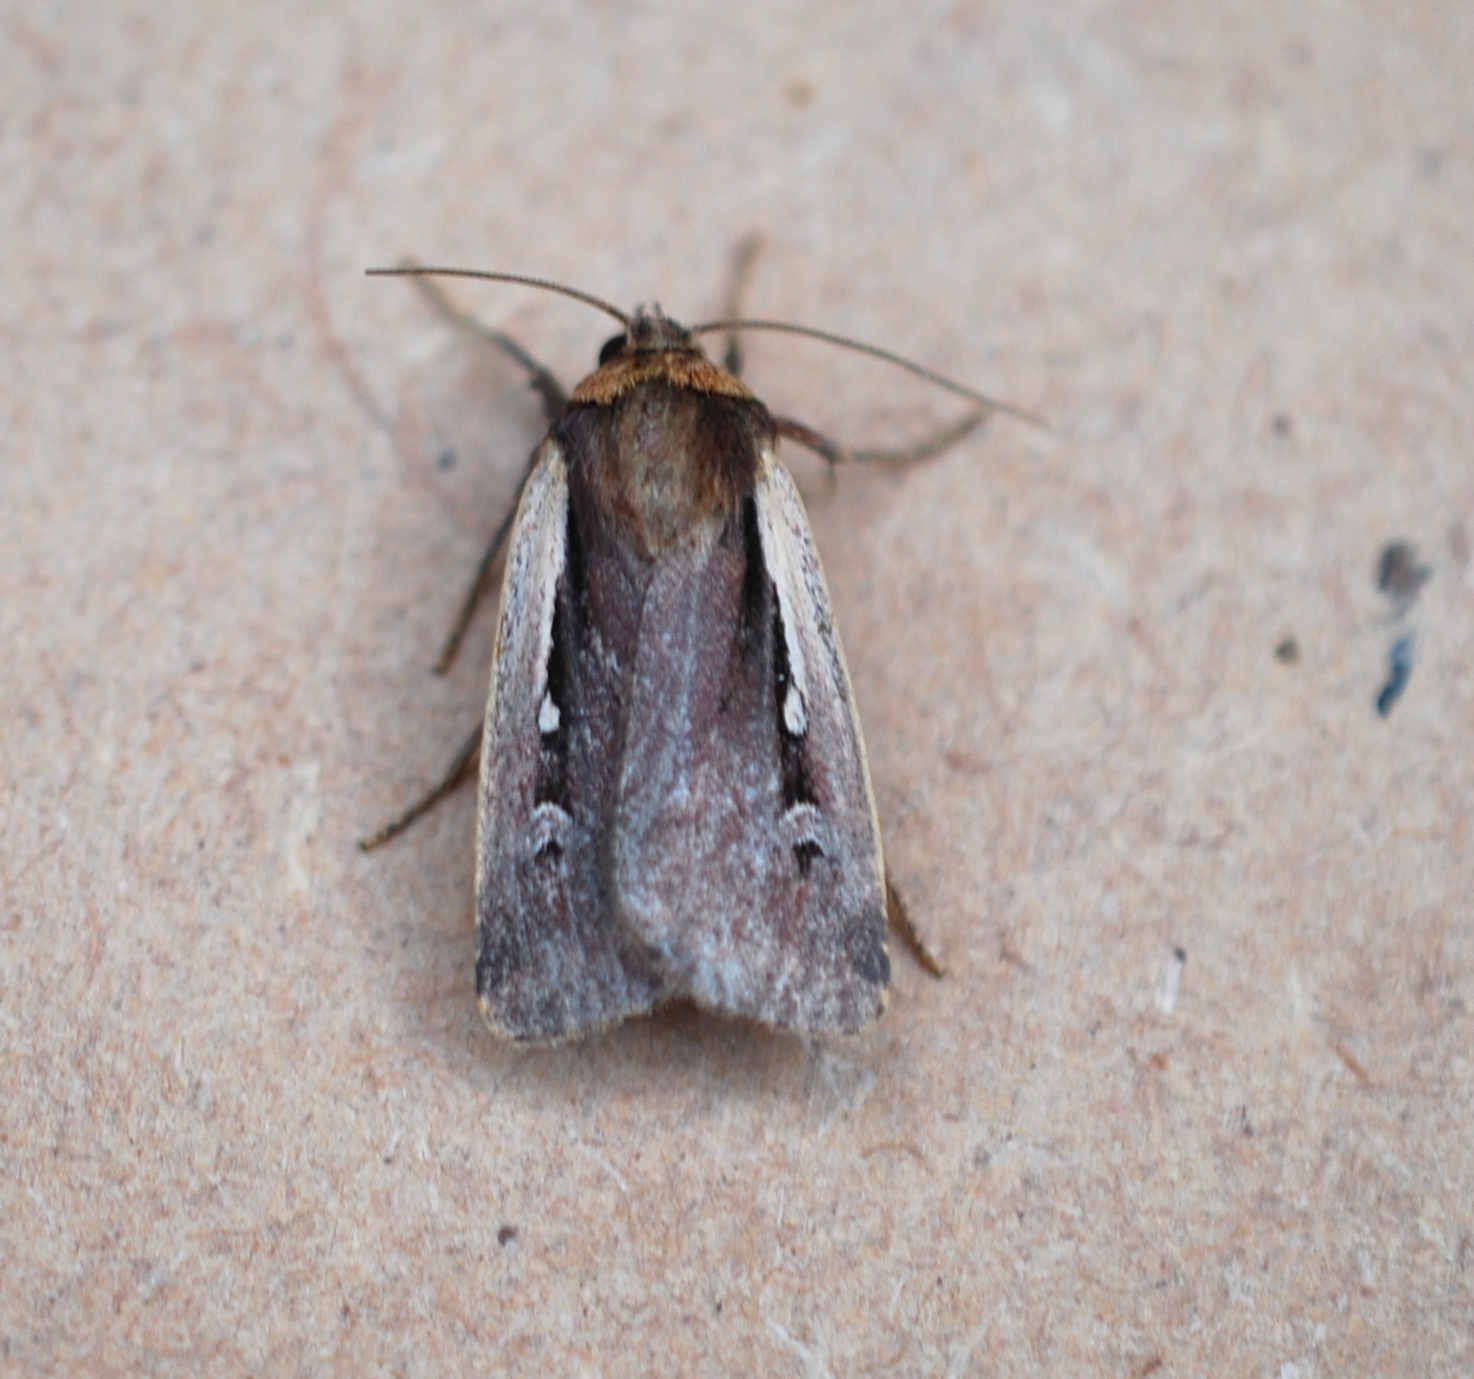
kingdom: Animalia
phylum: Arthropoda
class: Insecta
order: Lepidoptera
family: Noctuidae
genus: Ochropleura
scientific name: Ochropleura plecta
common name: Flame shoulder
